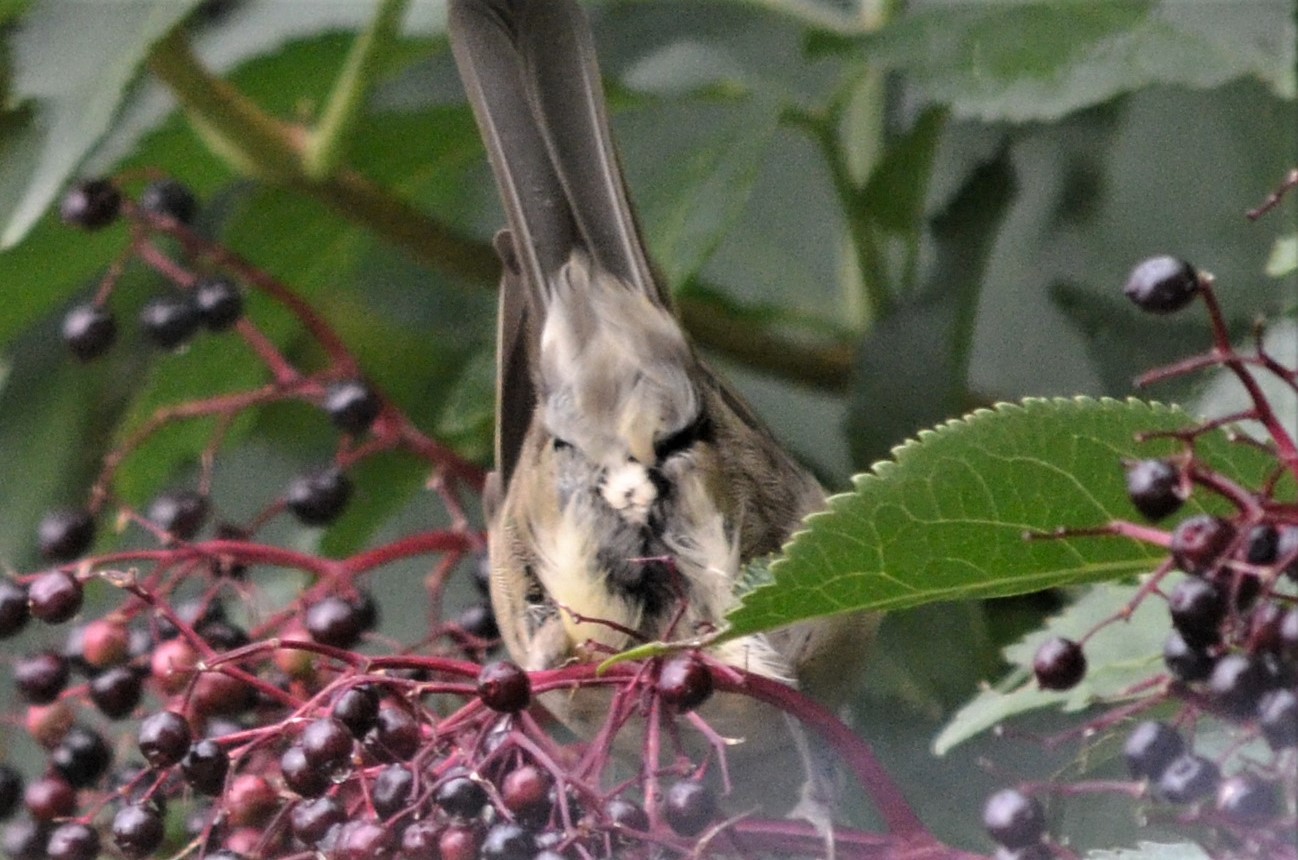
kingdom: Animalia
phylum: Chordata
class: Aves
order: Passeriformes
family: Sylviidae
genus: Sylvia
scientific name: Sylvia atricapilla
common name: Eurasian blackcap
